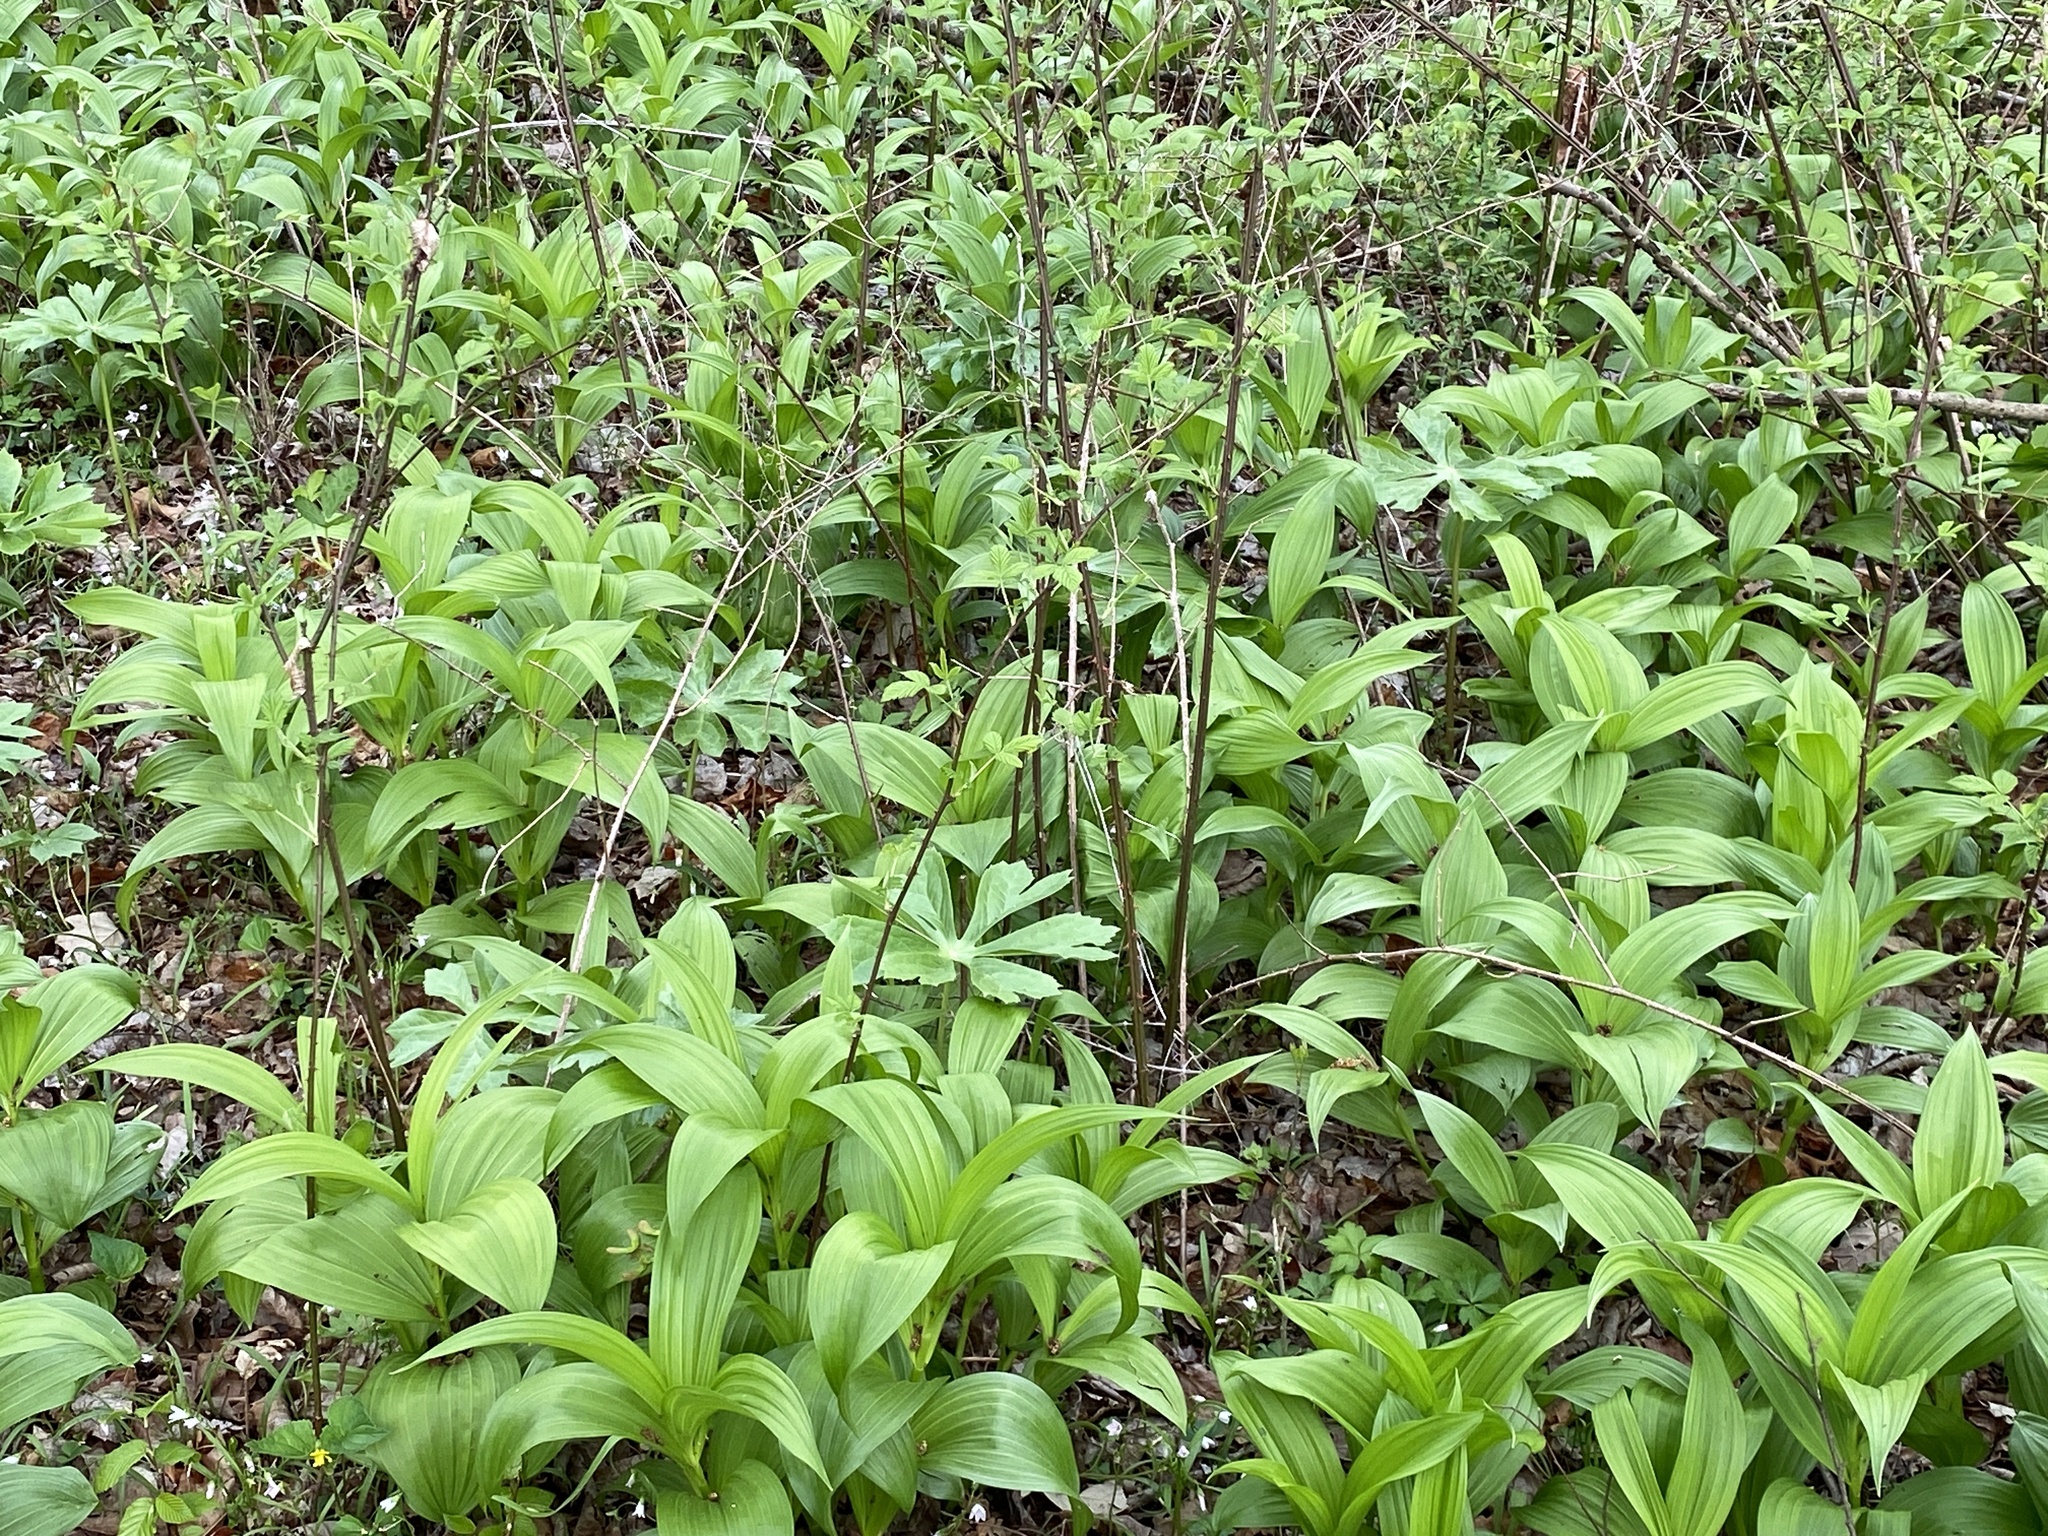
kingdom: Plantae
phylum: Tracheophyta
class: Liliopsida
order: Liliales
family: Melanthiaceae
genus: Veratrum
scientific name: Veratrum viride
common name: American false hellebore
